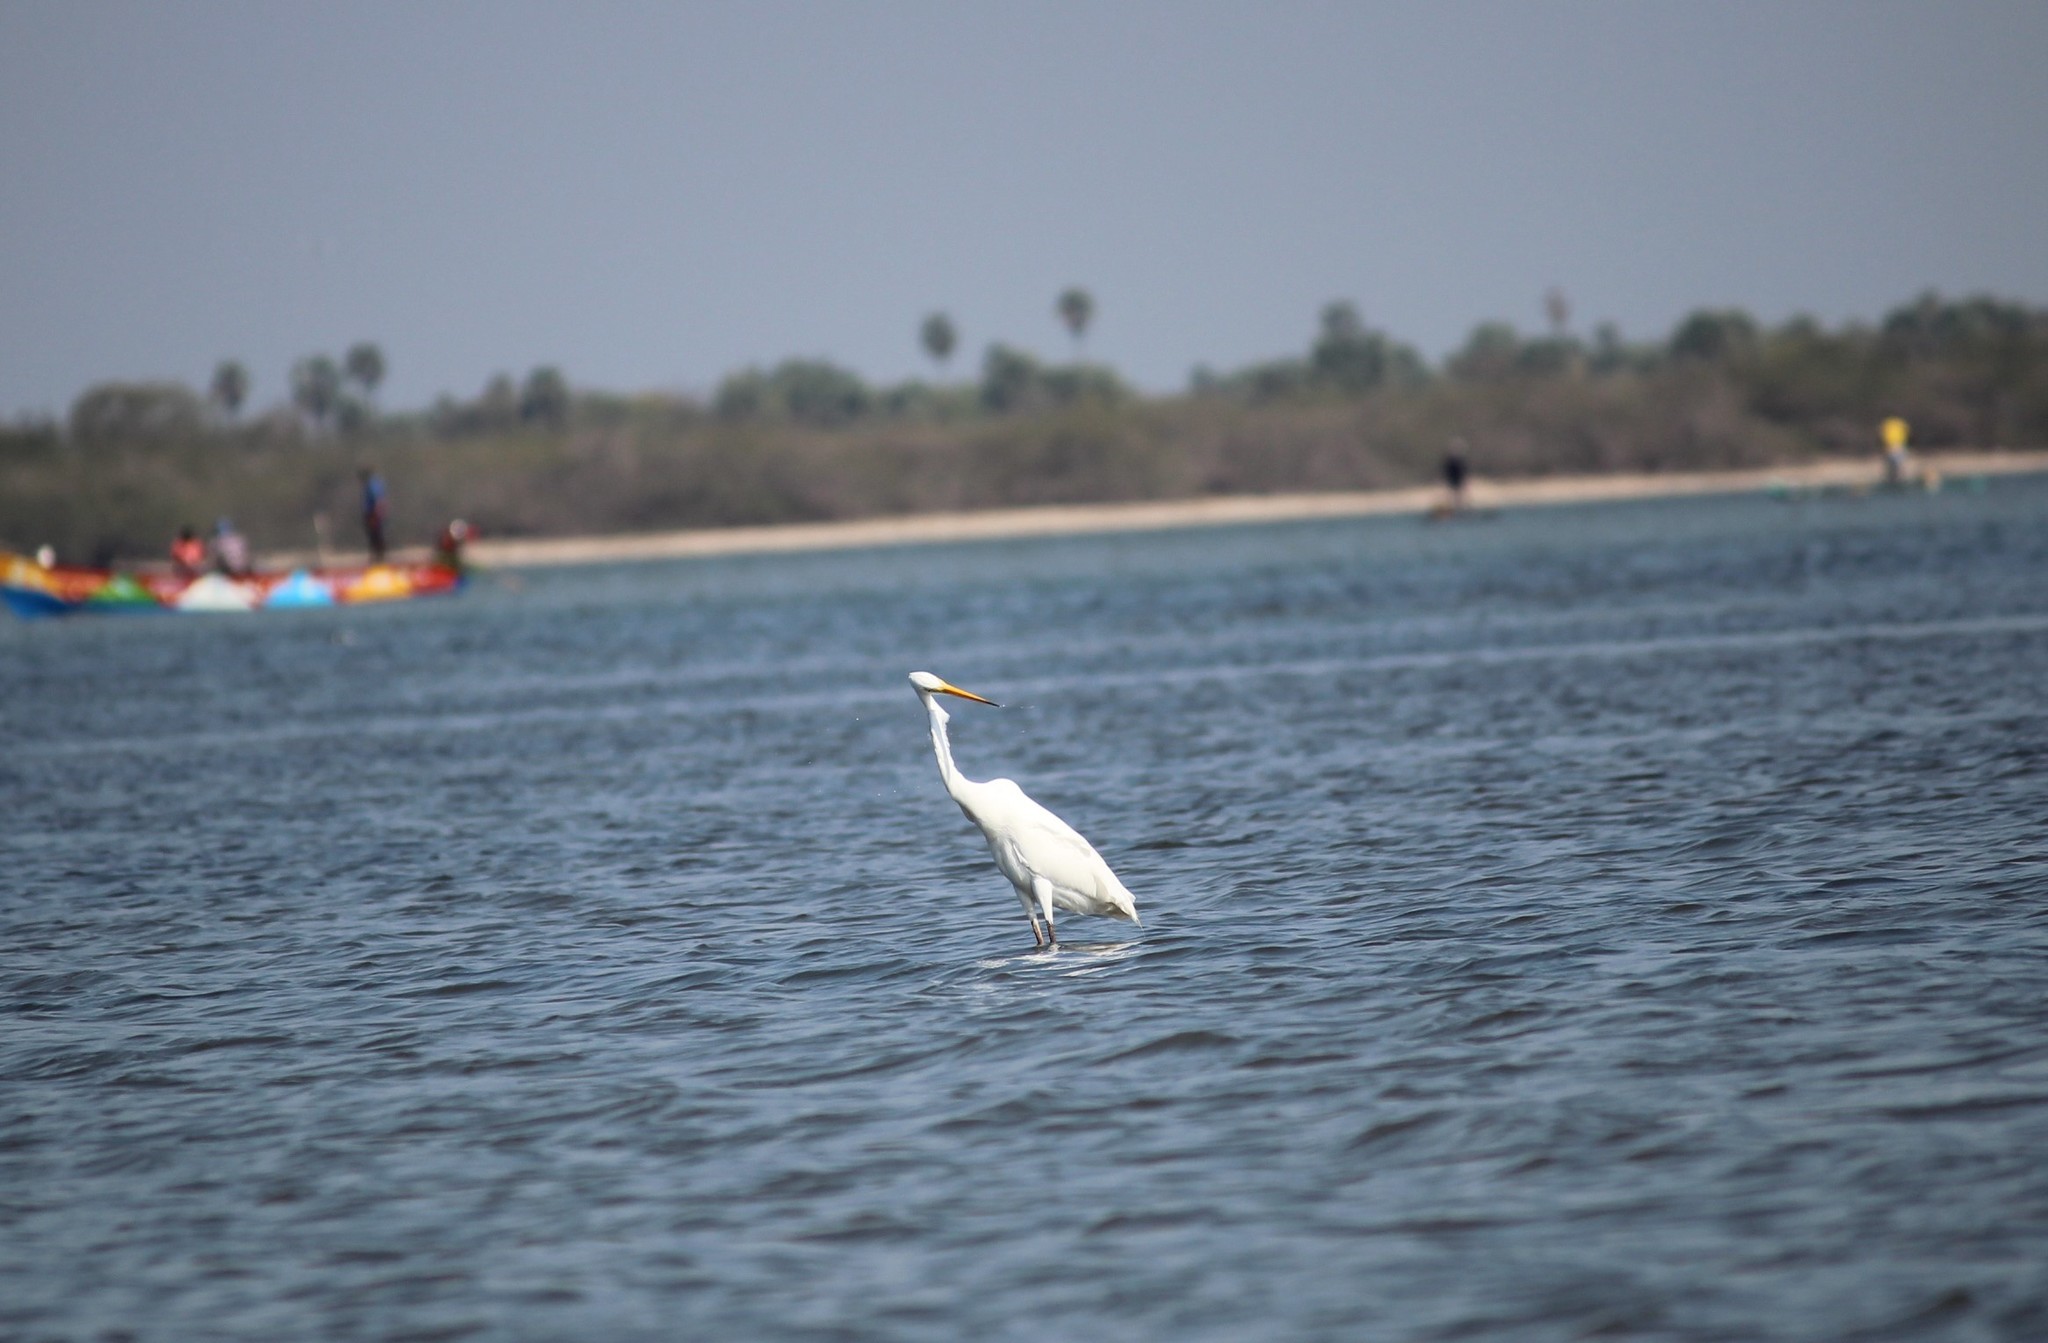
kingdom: Animalia
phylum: Chordata
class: Aves
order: Pelecaniformes
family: Ardeidae
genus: Ardea
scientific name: Ardea modesta
